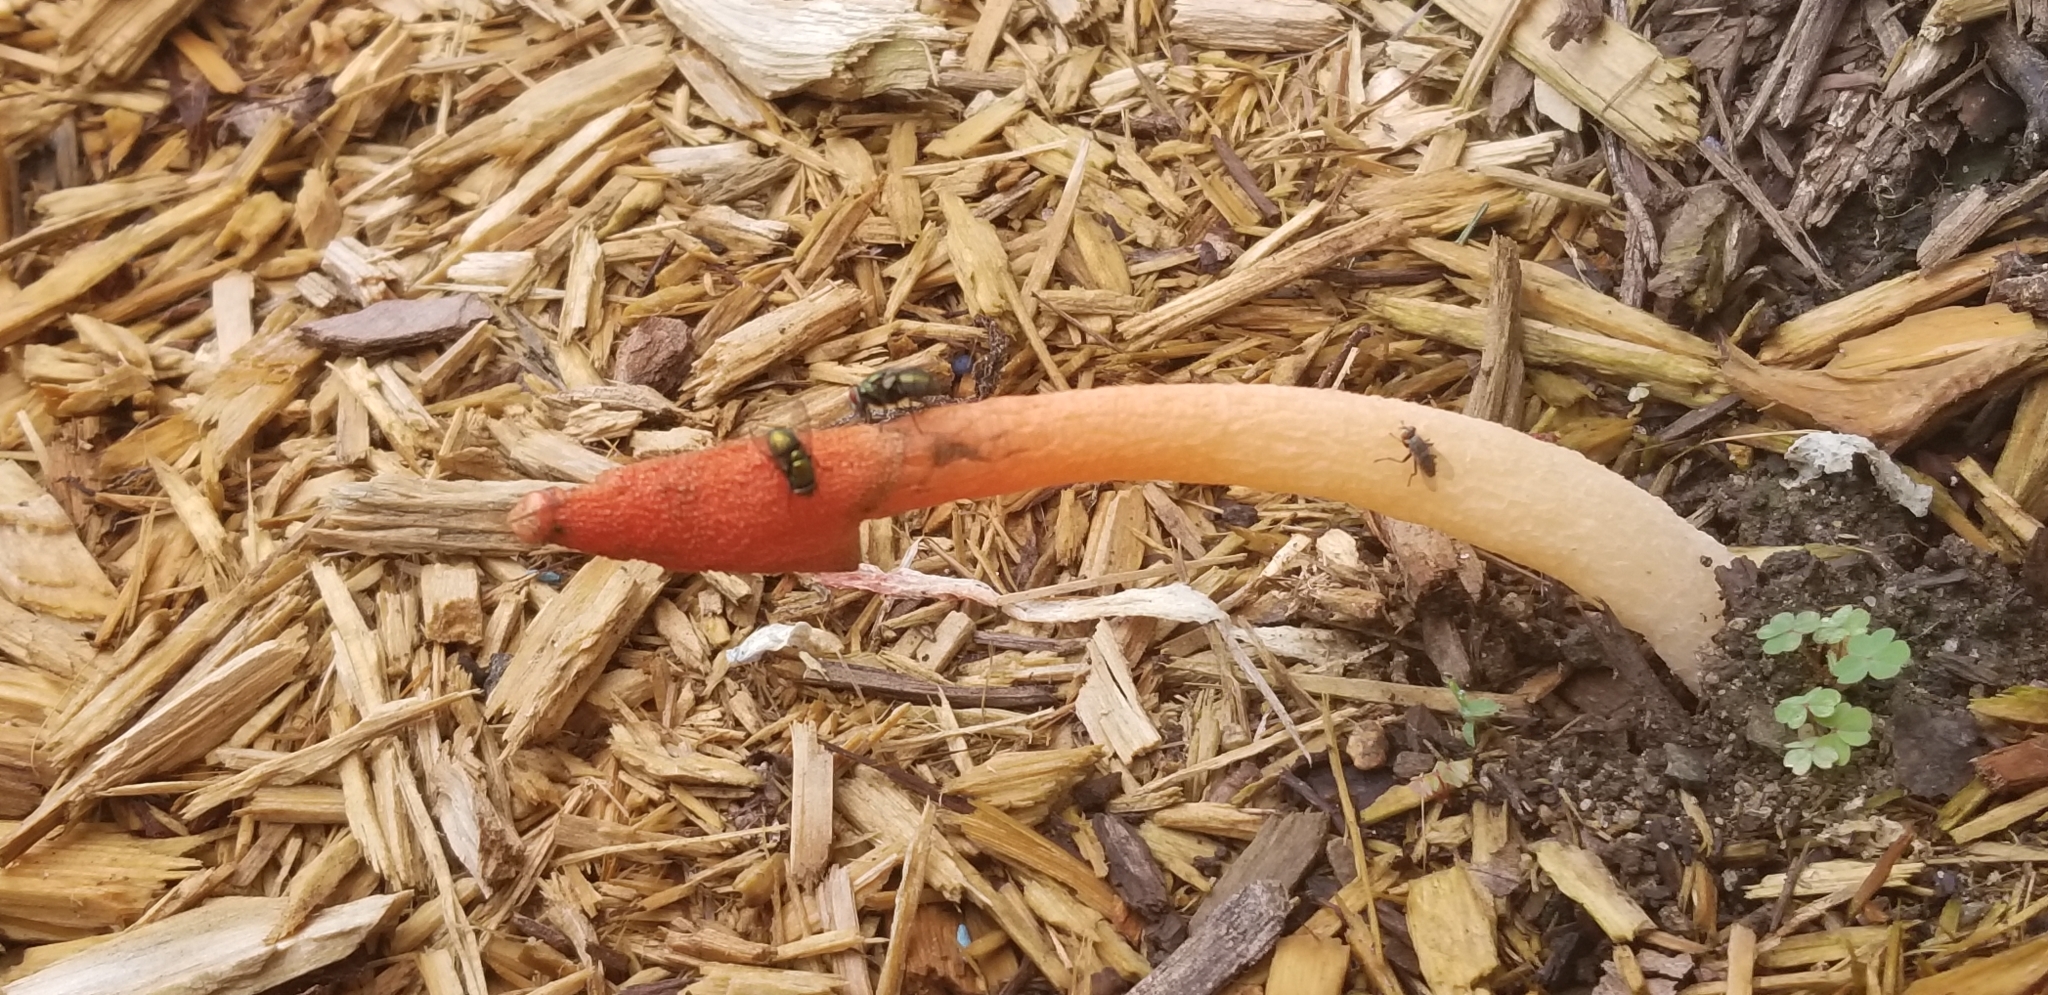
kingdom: Fungi
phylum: Basidiomycota
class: Agaricomycetes
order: Phallales
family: Phallaceae
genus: Phallus
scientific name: Phallus rugulosus
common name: Wrinkly stinkhorn
